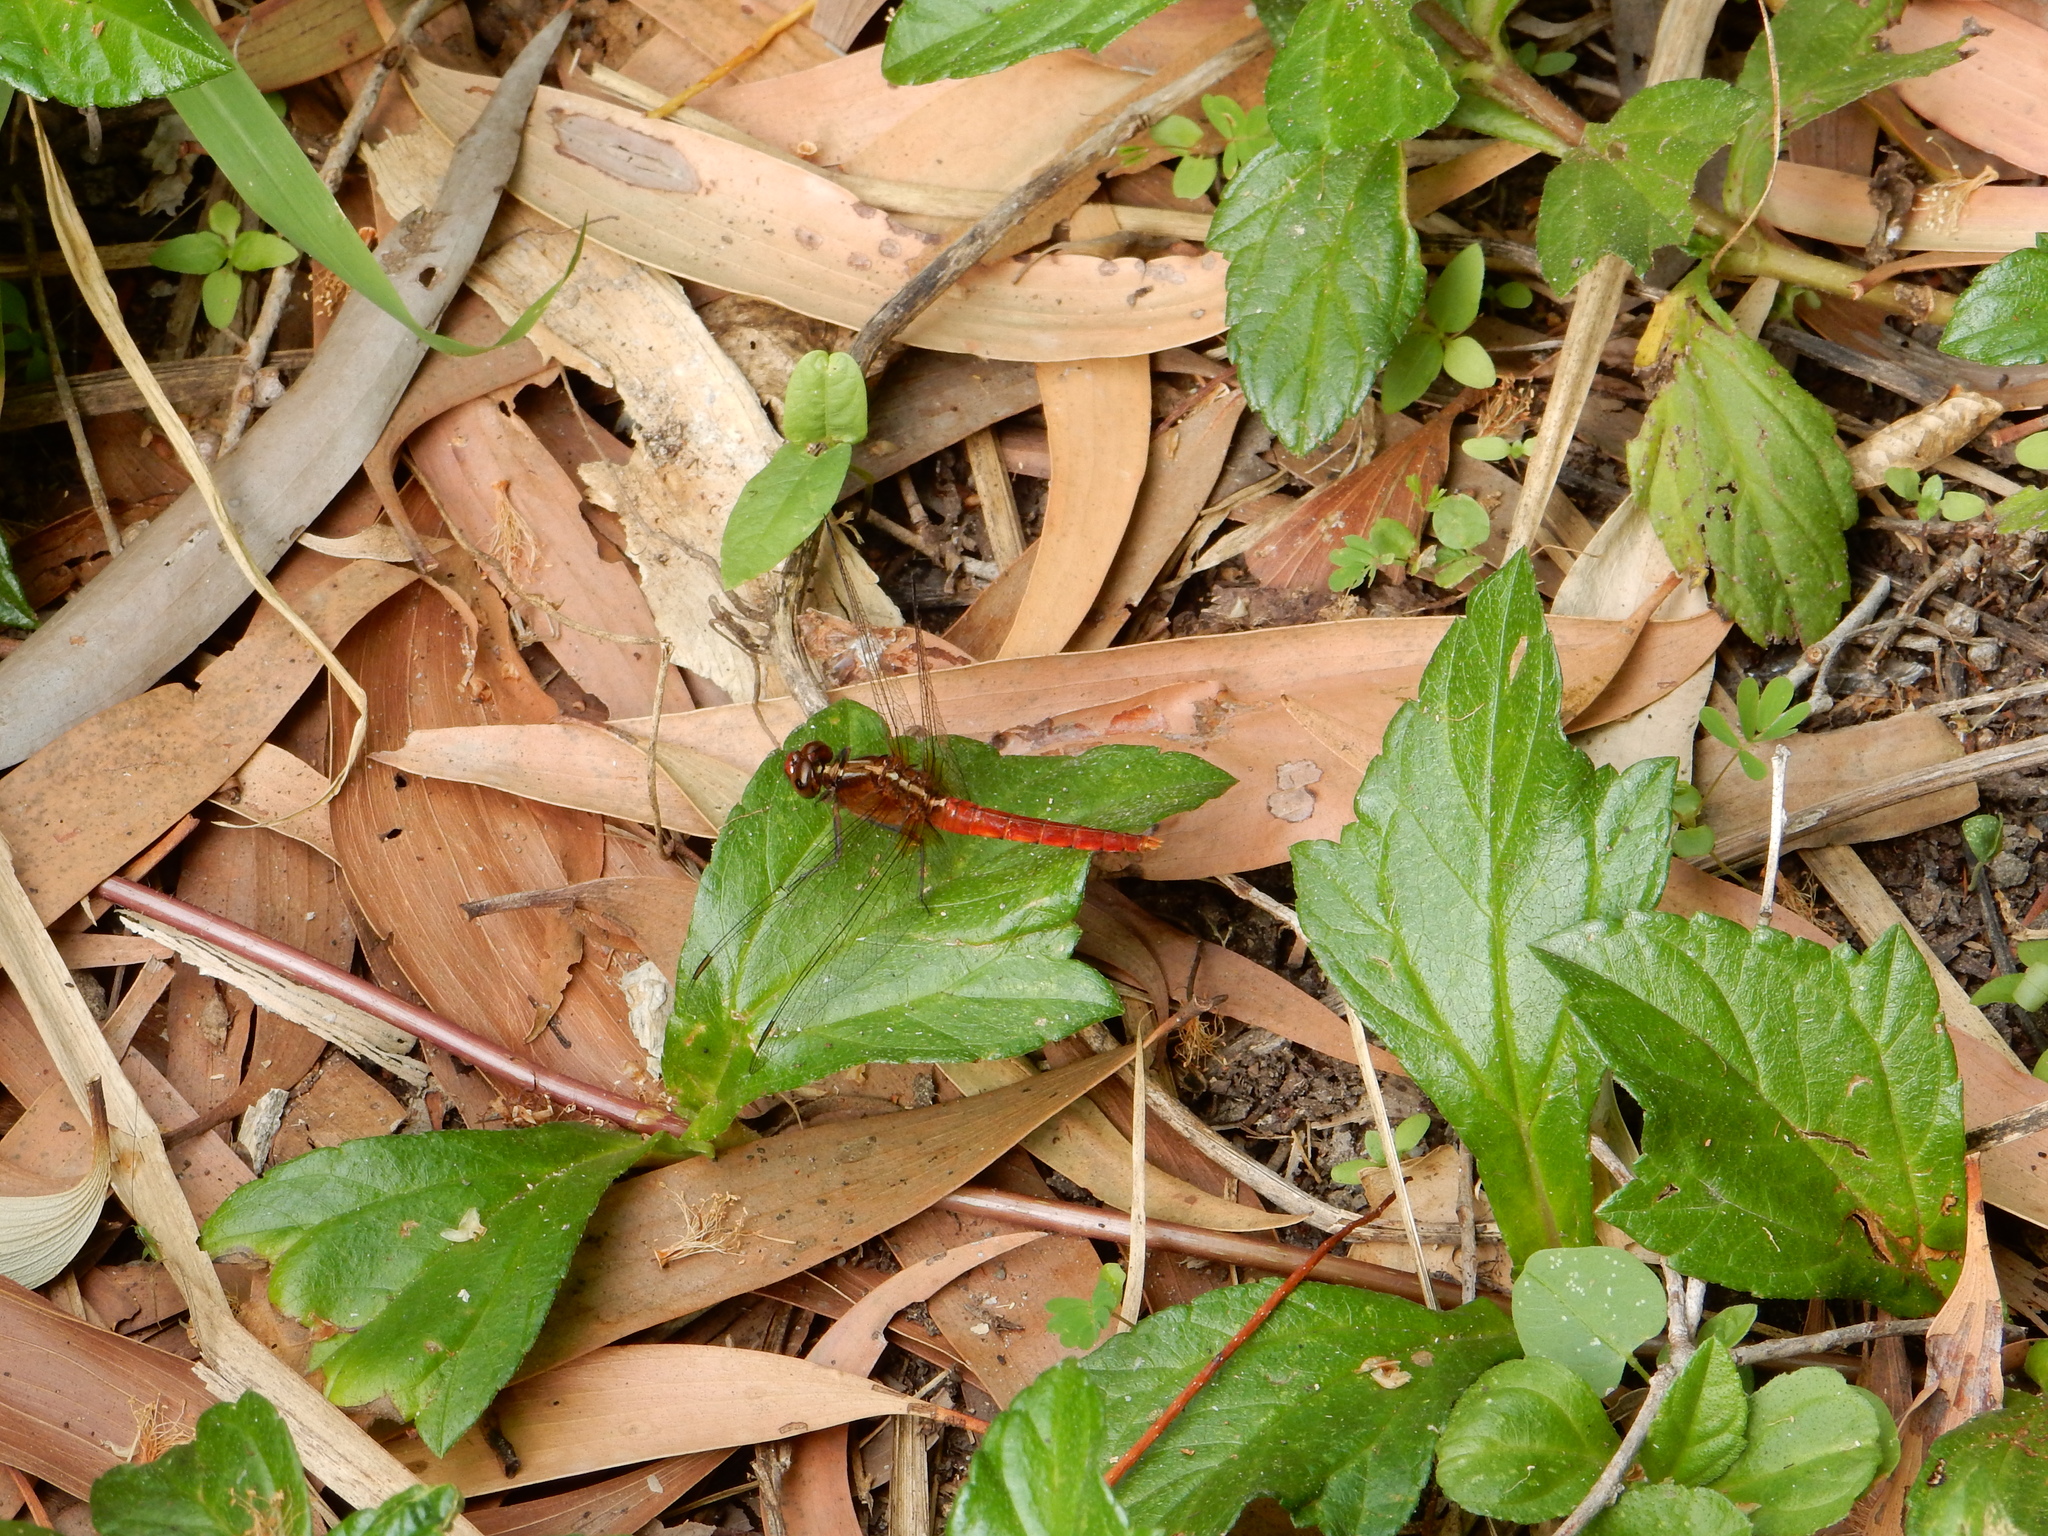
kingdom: Animalia
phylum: Arthropoda
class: Insecta
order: Odonata
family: Libellulidae
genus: Rhodothemis
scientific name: Rhodothemis lieftincki
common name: Red arrow
